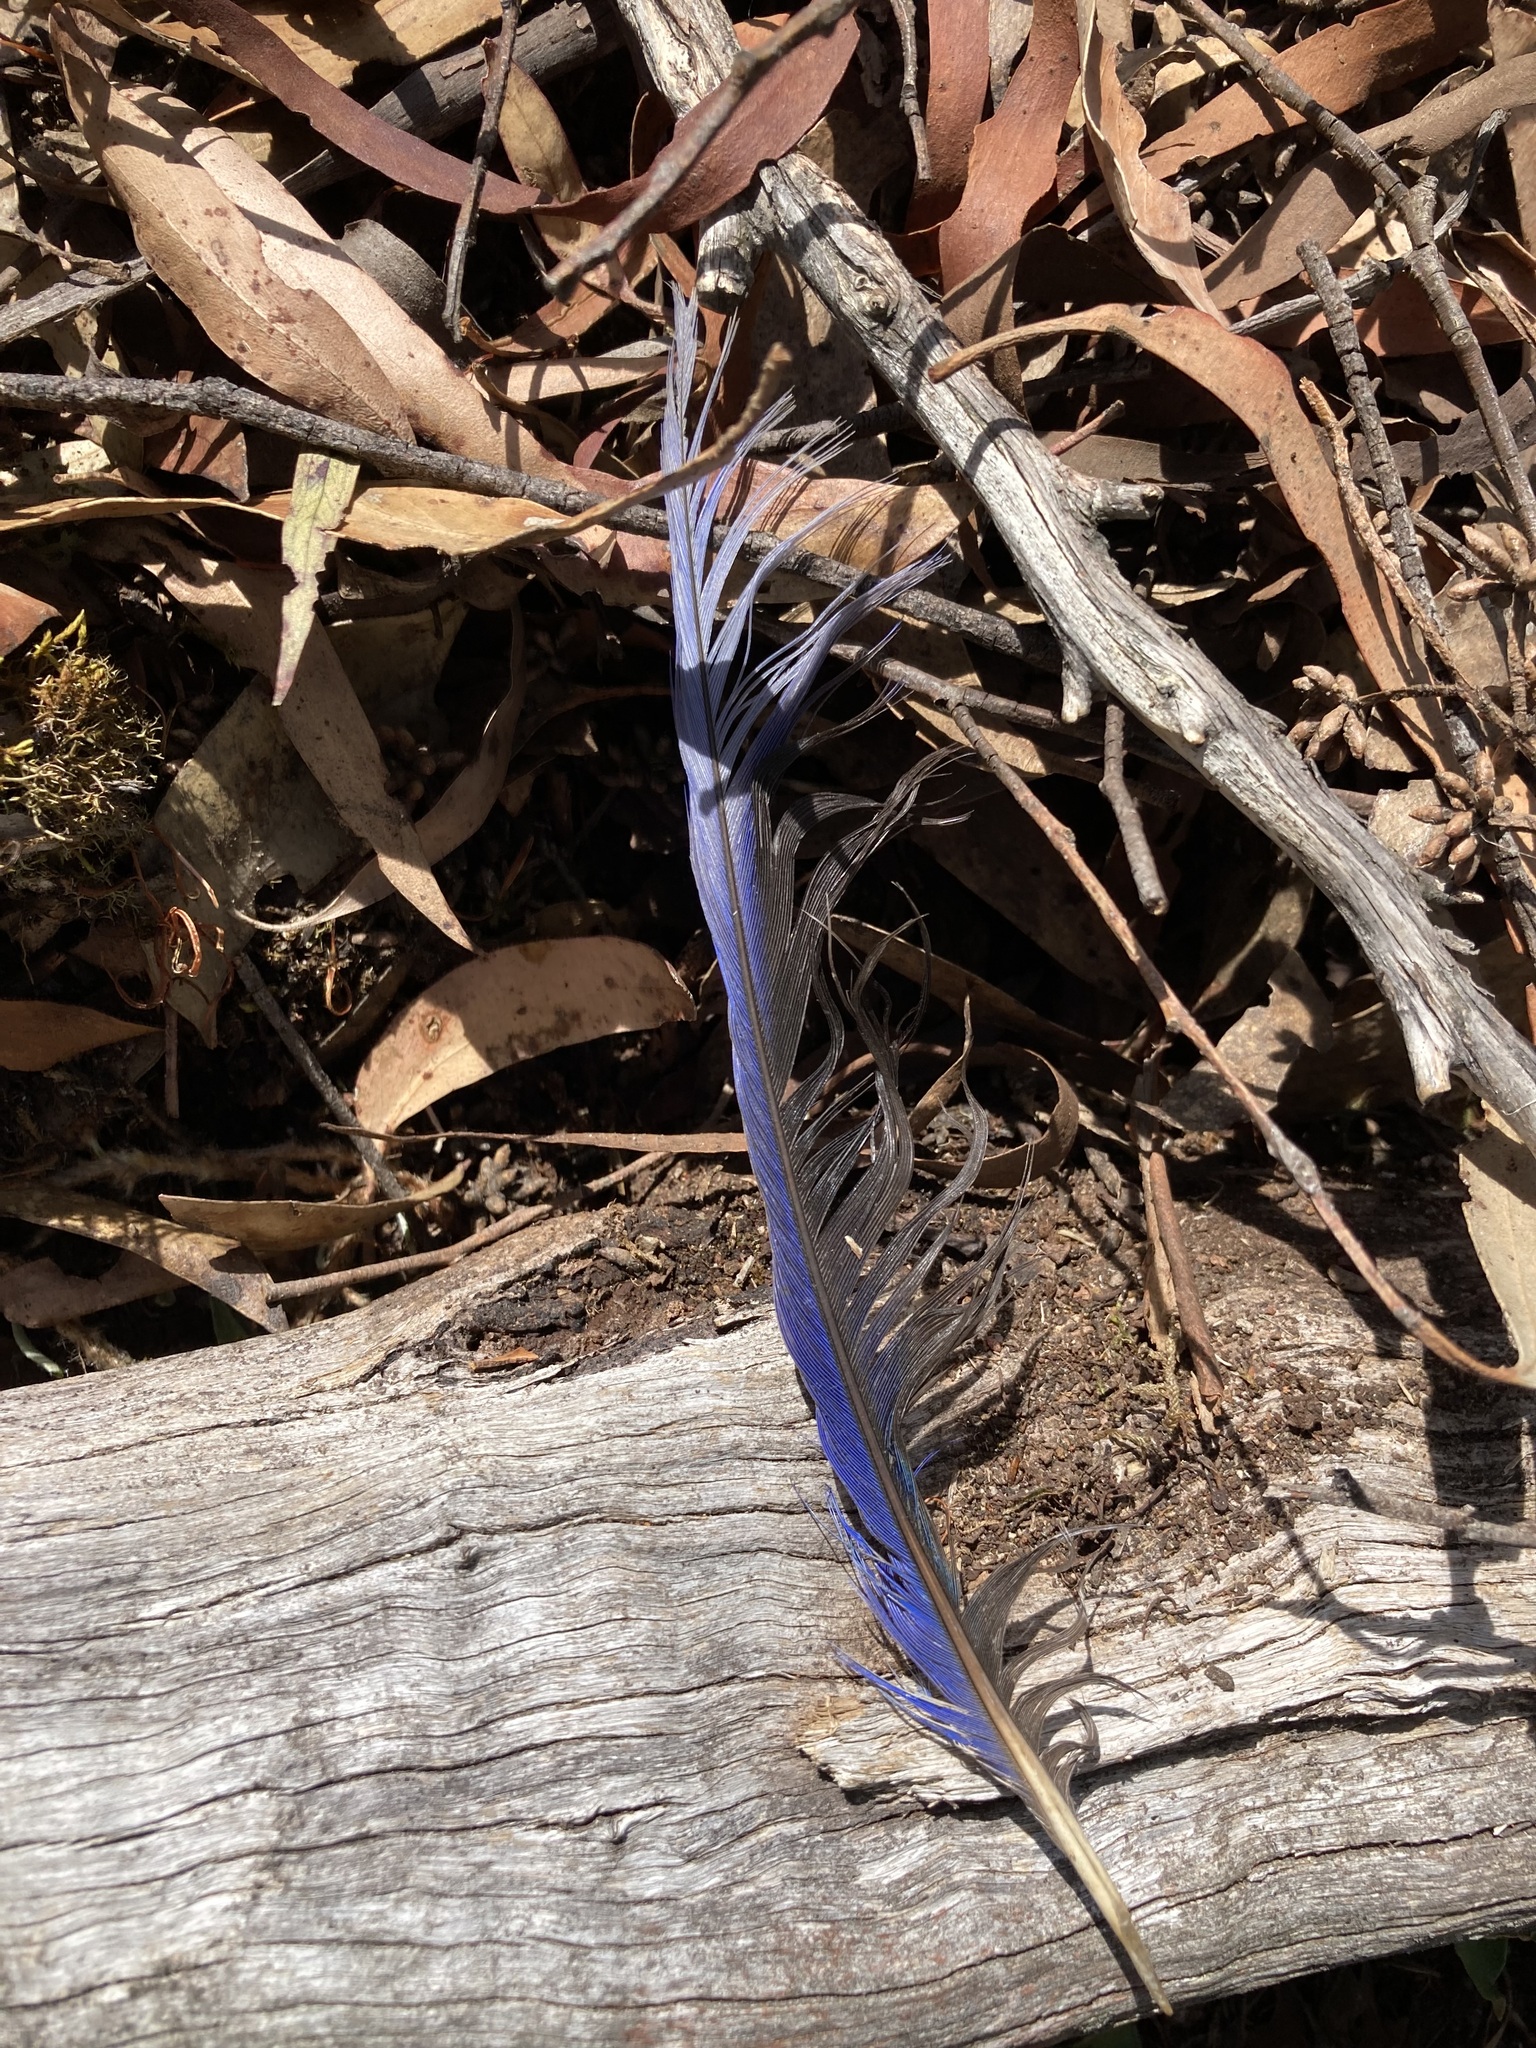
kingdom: Animalia
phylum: Chordata
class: Aves
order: Psittaciformes
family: Psittacidae
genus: Platycercus
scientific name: Platycercus elegans
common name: Crimson rosella
